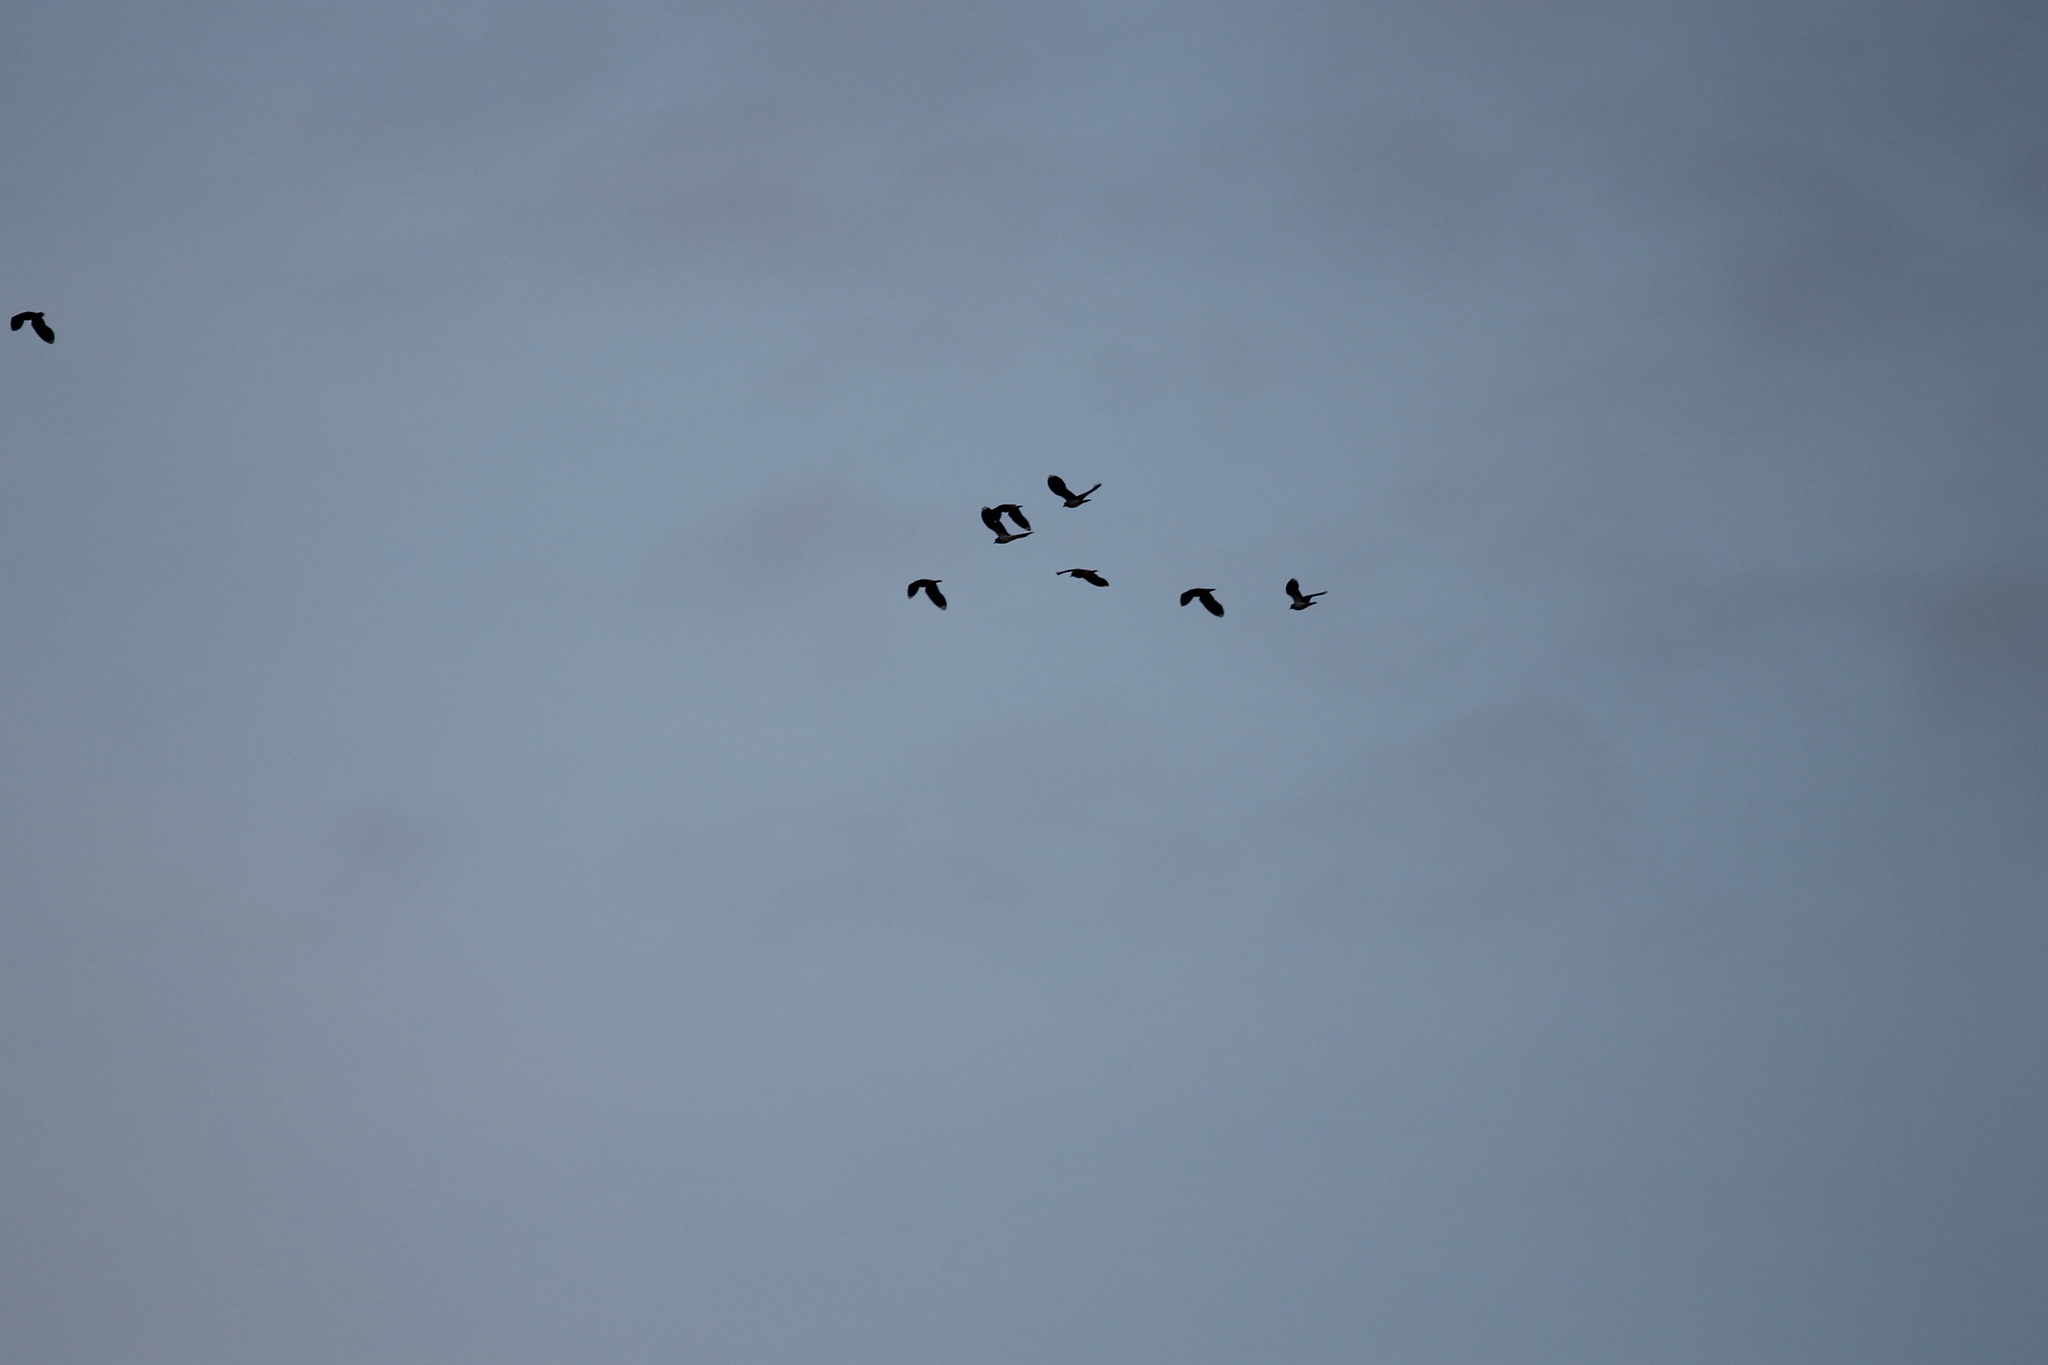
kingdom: Animalia
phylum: Chordata
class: Aves
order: Charadriiformes
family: Charadriidae
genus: Vanellus
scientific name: Vanellus vanellus
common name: Northern lapwing
